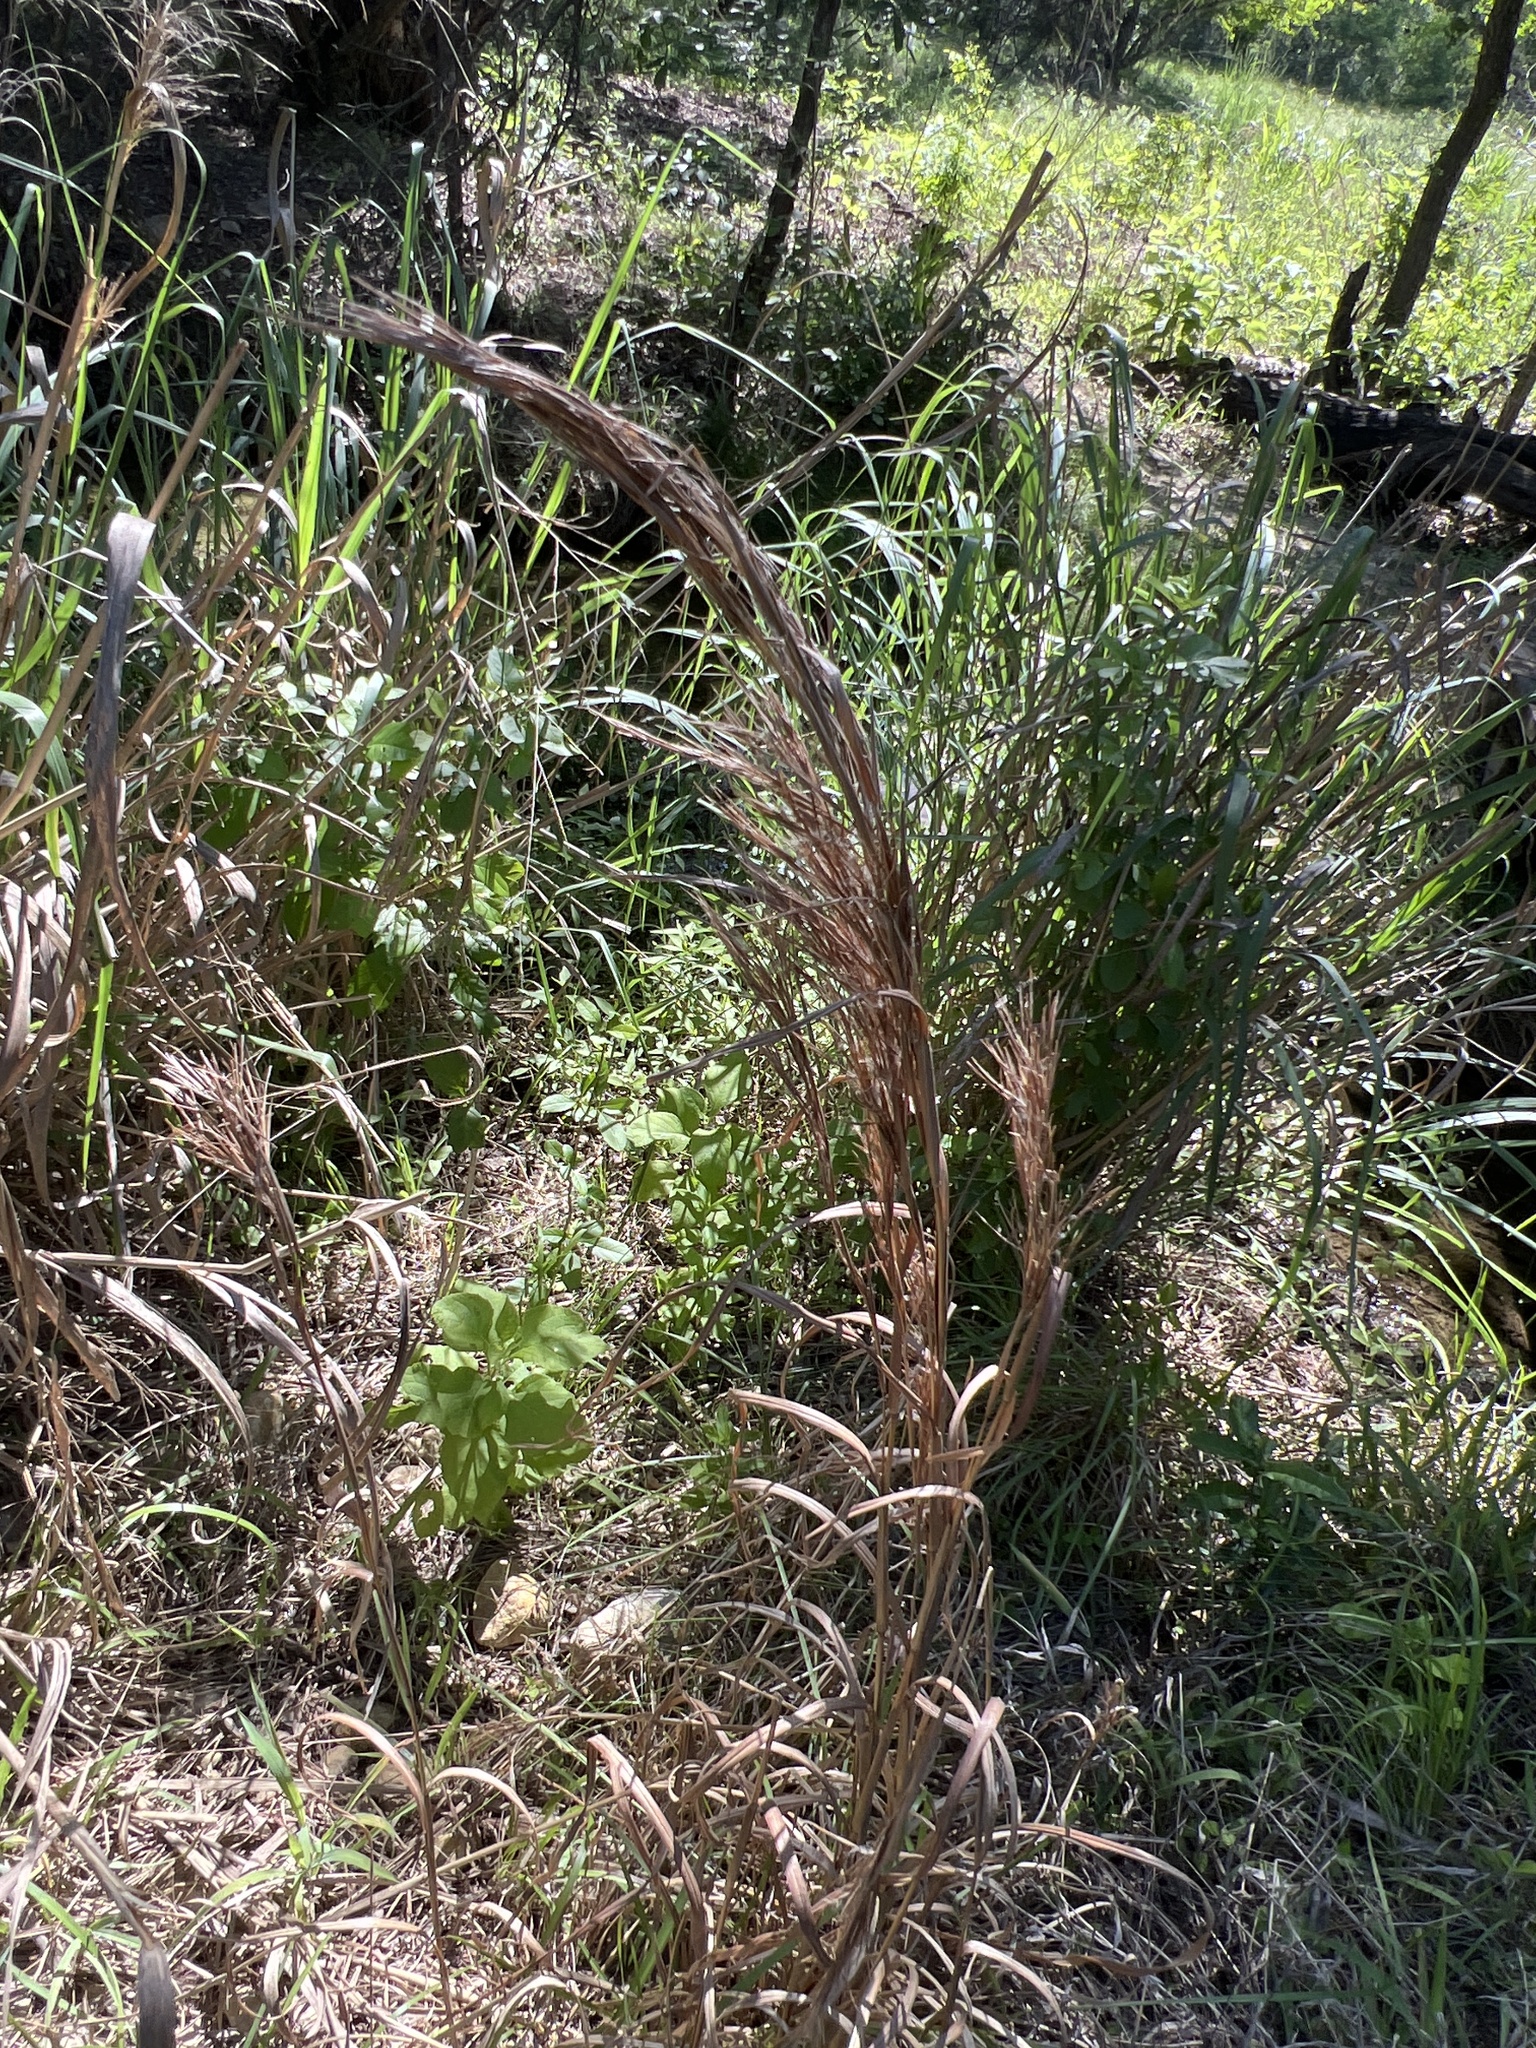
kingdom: Plantae
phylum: Tracheophyta
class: Liliopsida
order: Poales
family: Poaceae
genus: Andropogon
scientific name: Andropogon tenuispatheus
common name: Bushy bluestem
